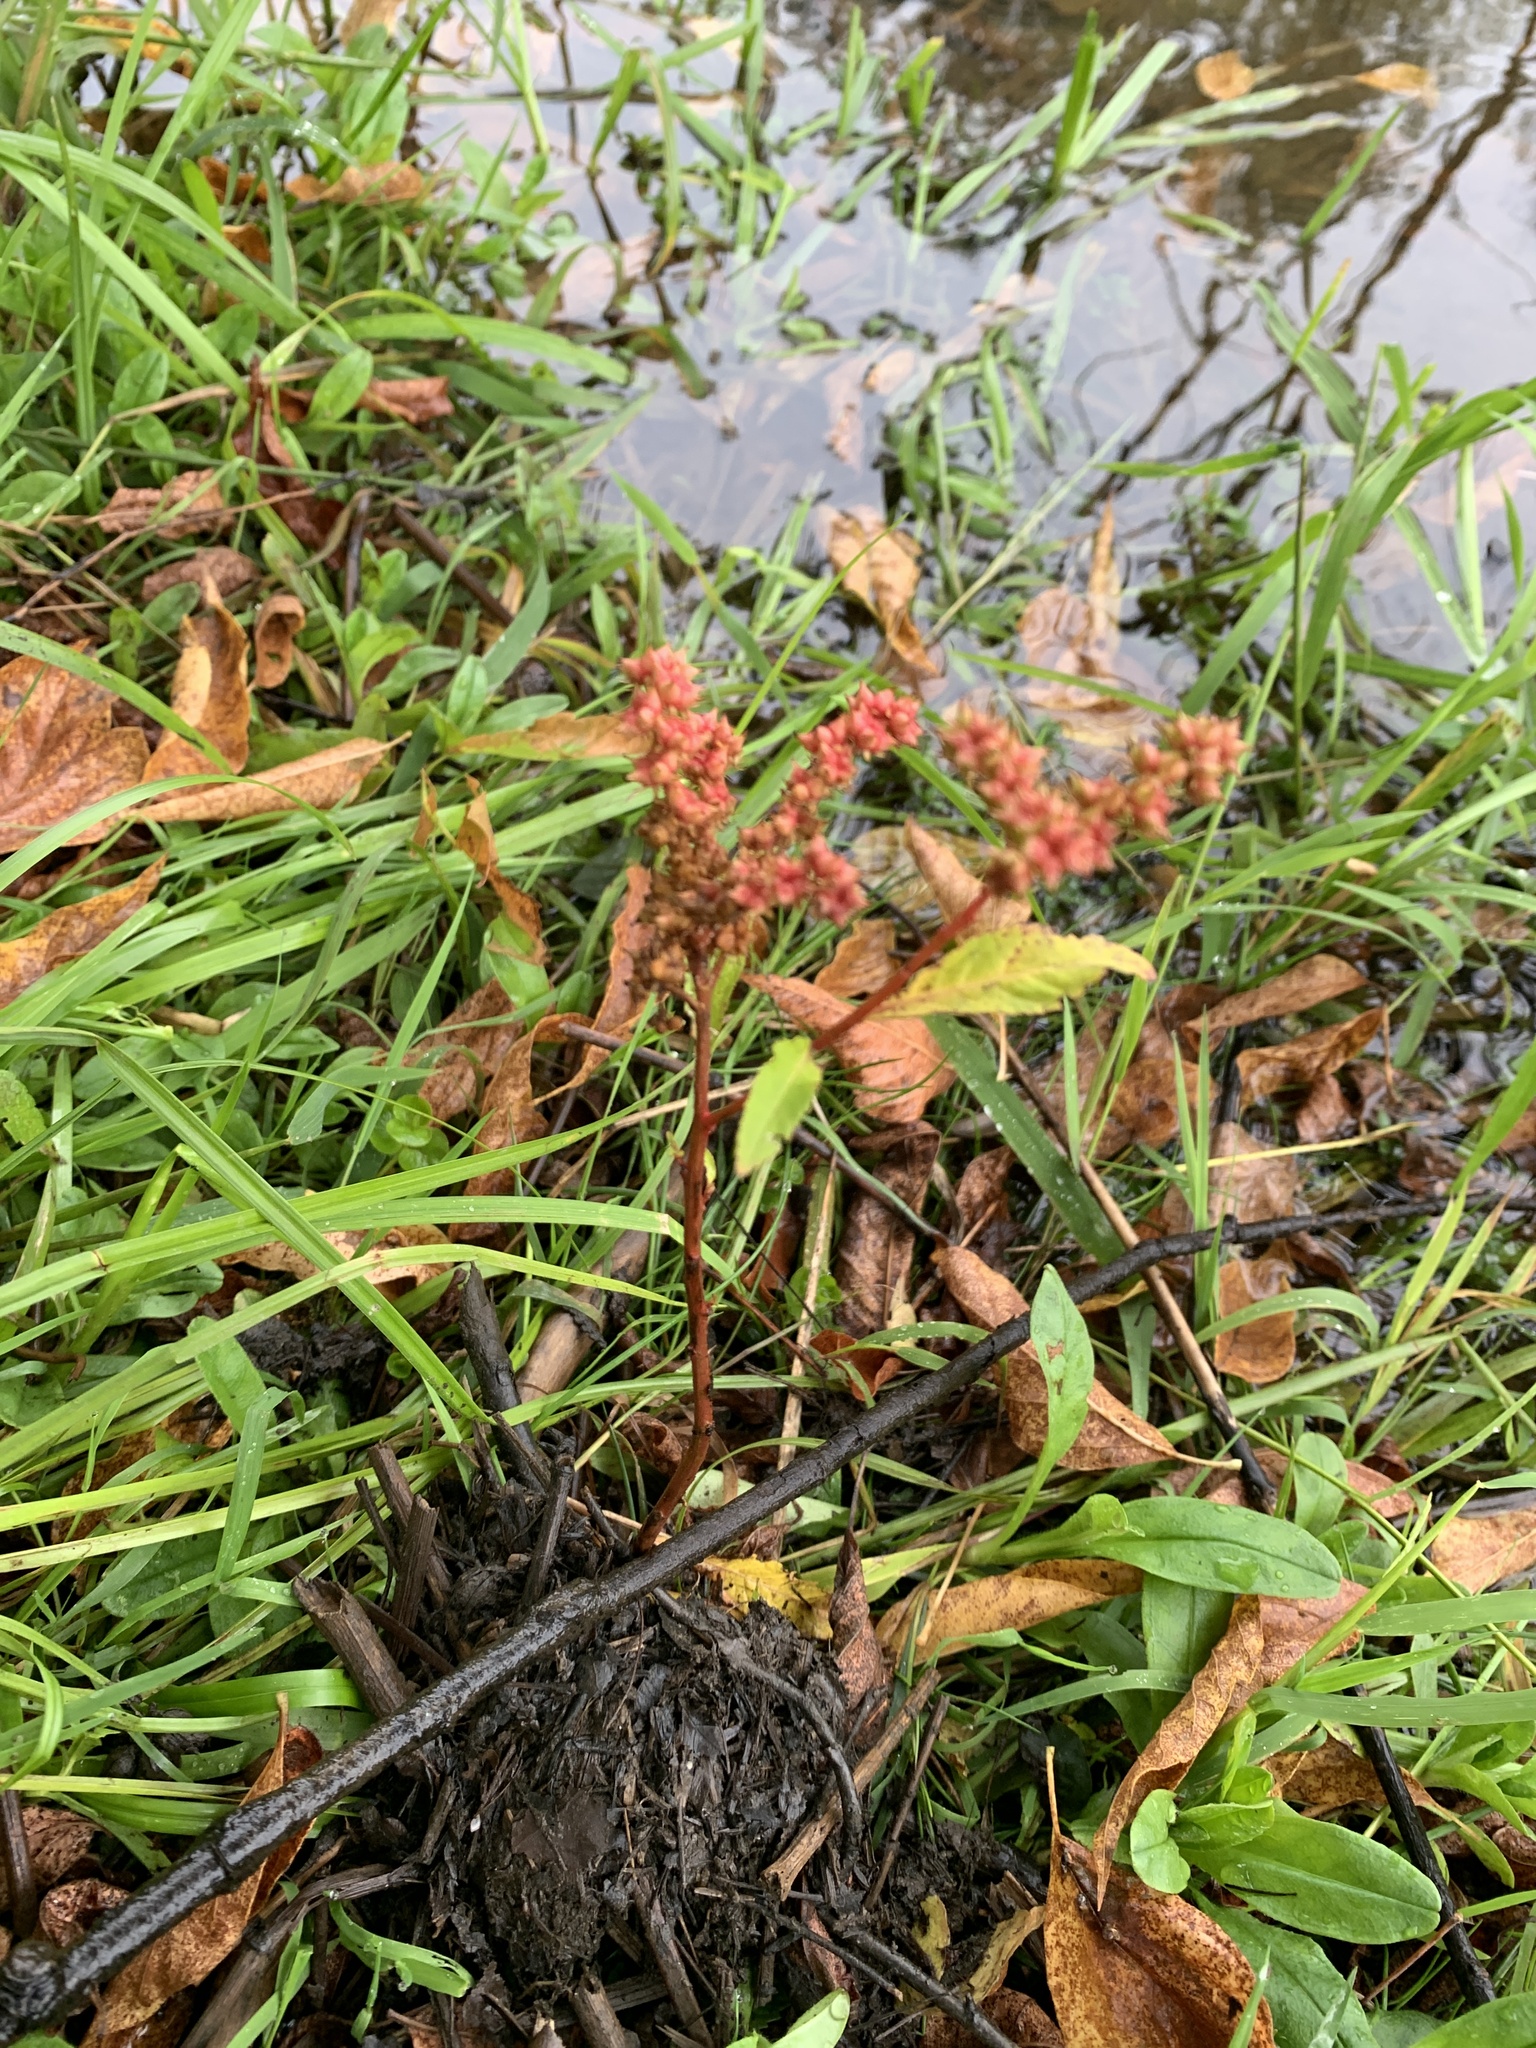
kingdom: Plantae
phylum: Tracheophyta
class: Magnoliopsida
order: Saxifragales
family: Penthoraceae
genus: Penthorum
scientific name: Penthorum sedoides
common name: Ditch stonecrop
